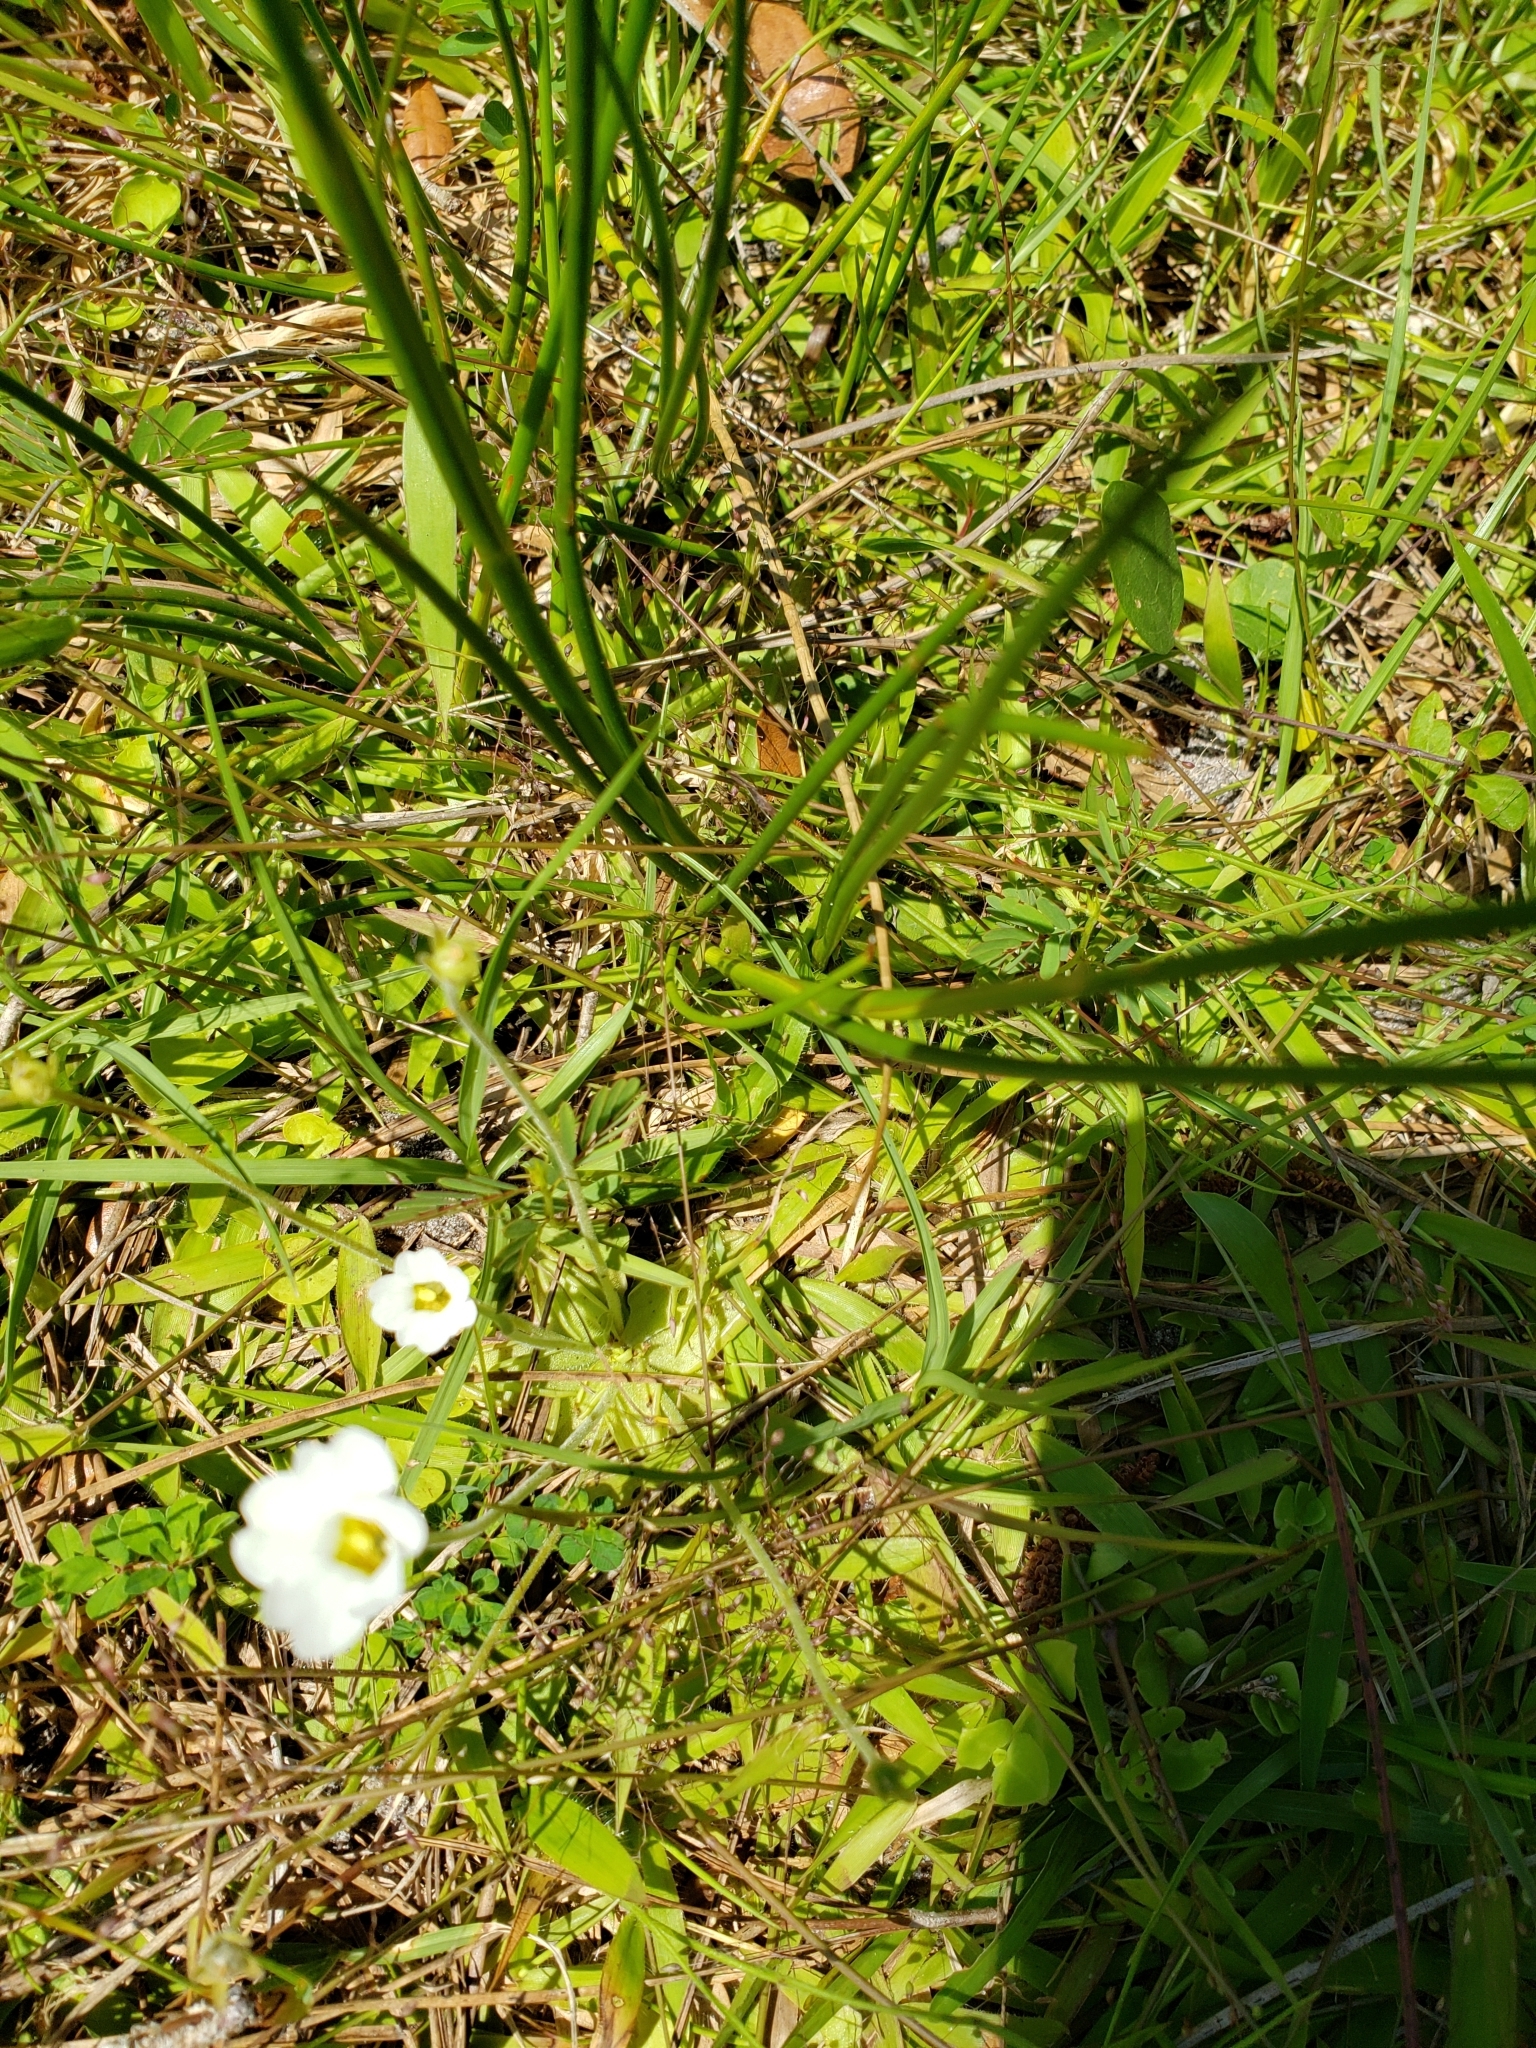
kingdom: Plantae
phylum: Tracheophyta
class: Magnoliopsida
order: Lamiales
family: Lentibulariaceae
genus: Pinguicula
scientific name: Pinguicula pumila
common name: Small butterwort
